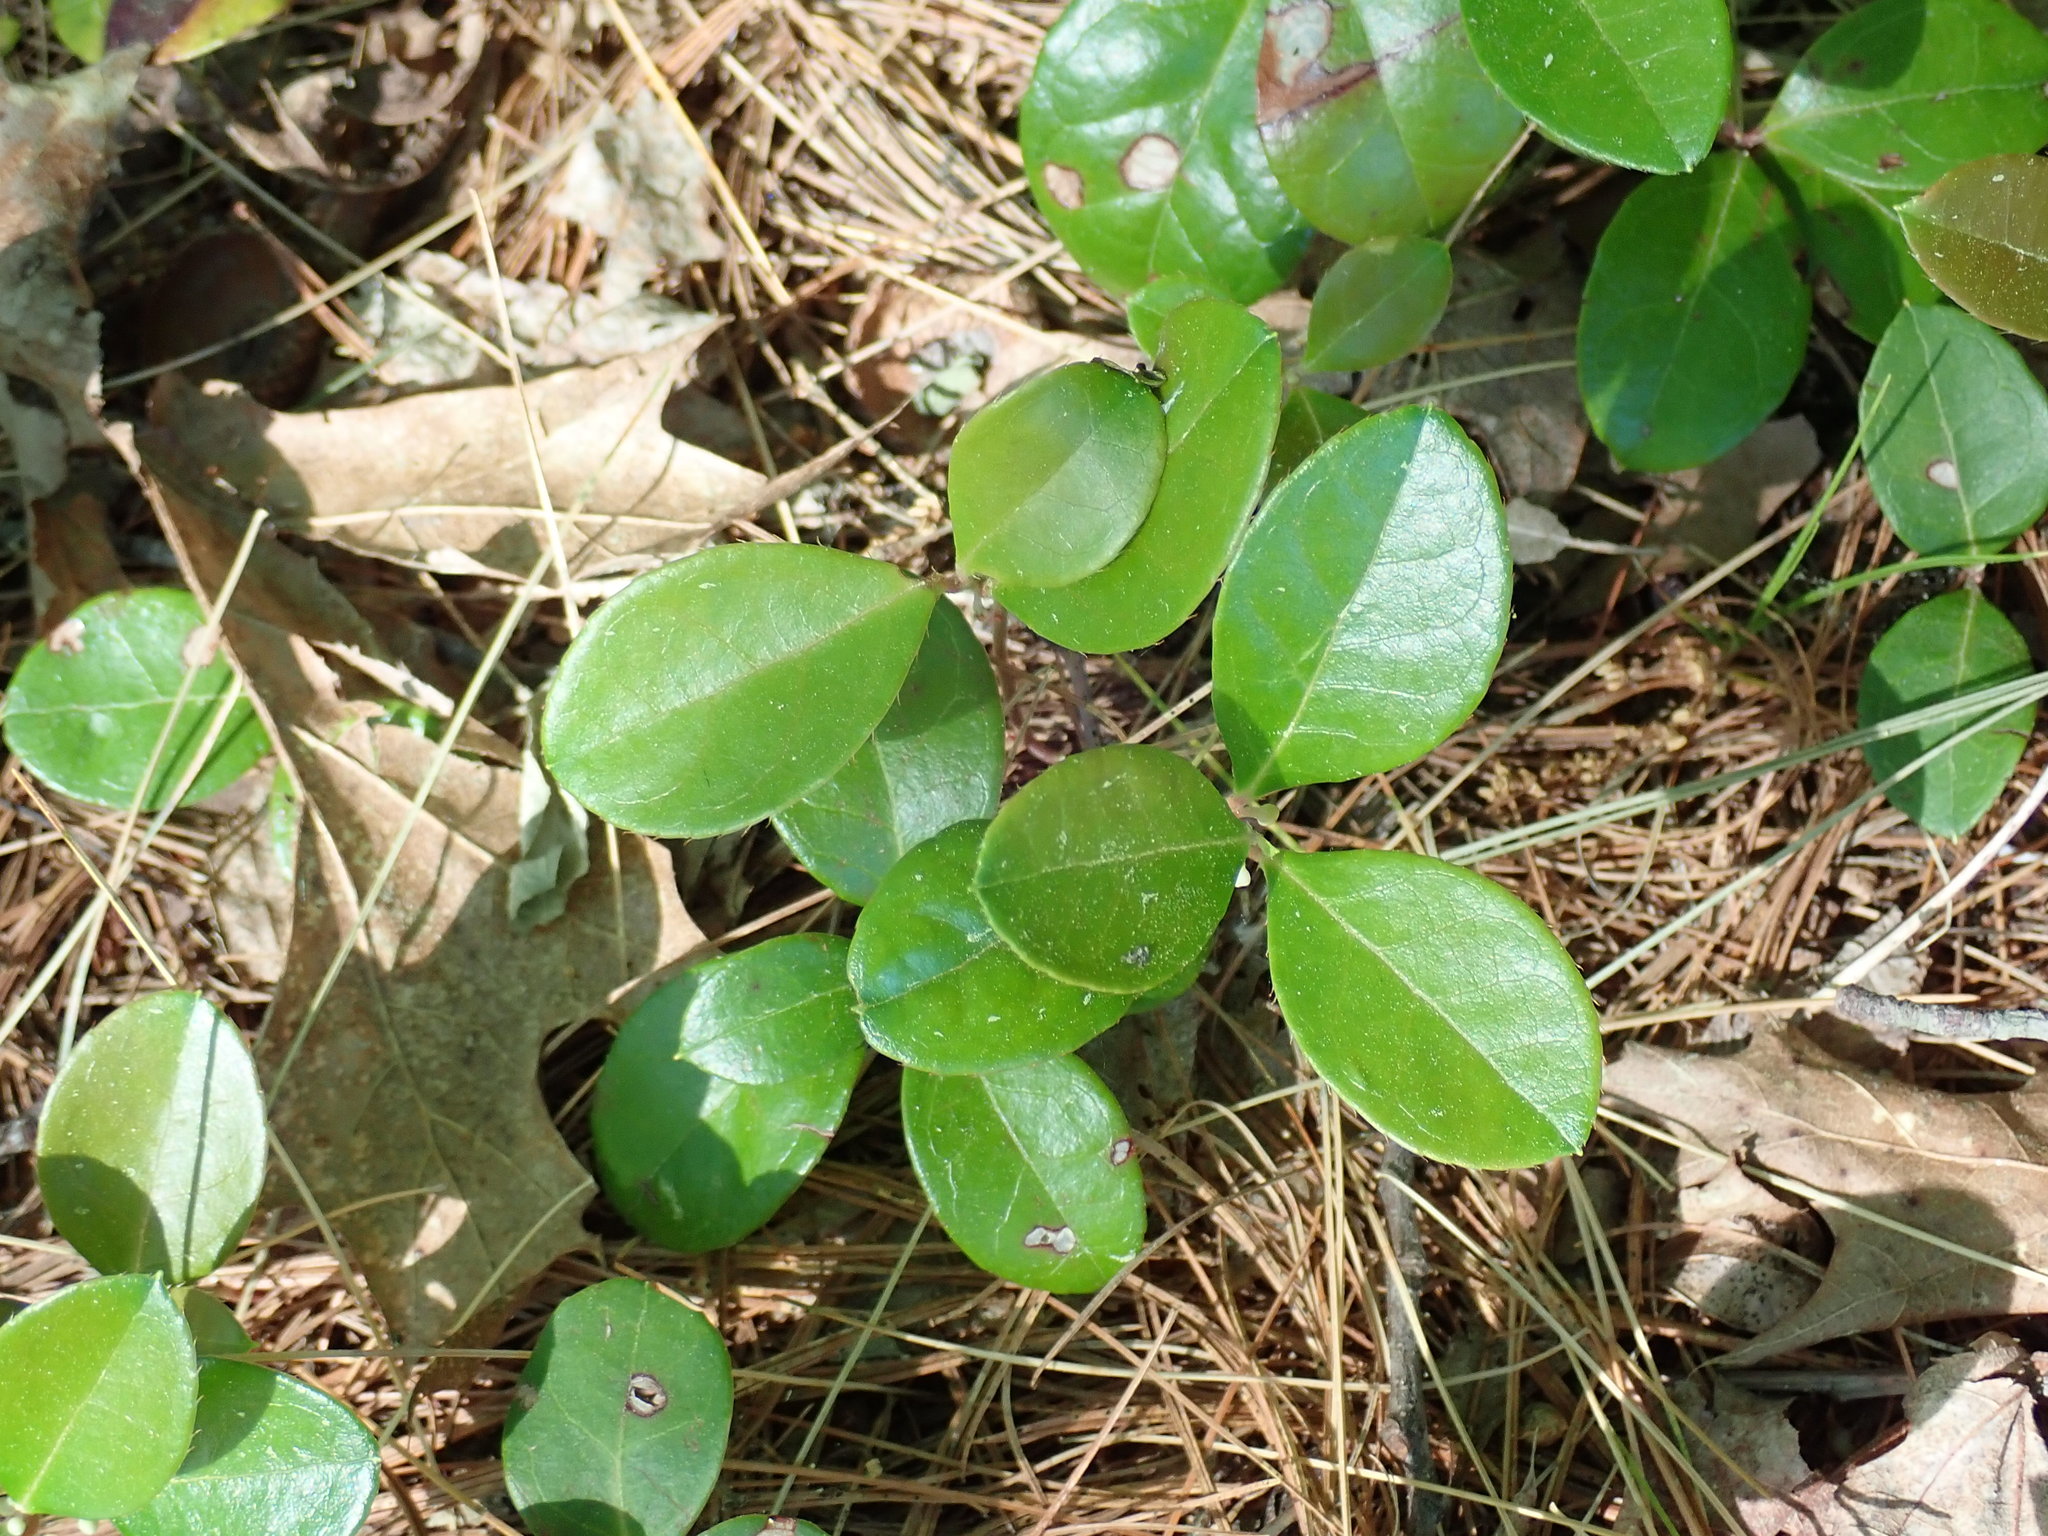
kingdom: Plantae
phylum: Tracheophyta
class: Magnoliopsida
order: Ericales
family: Ericaceae
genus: Gaultheria
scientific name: Gaultheria procumbens
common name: Checkerberry
